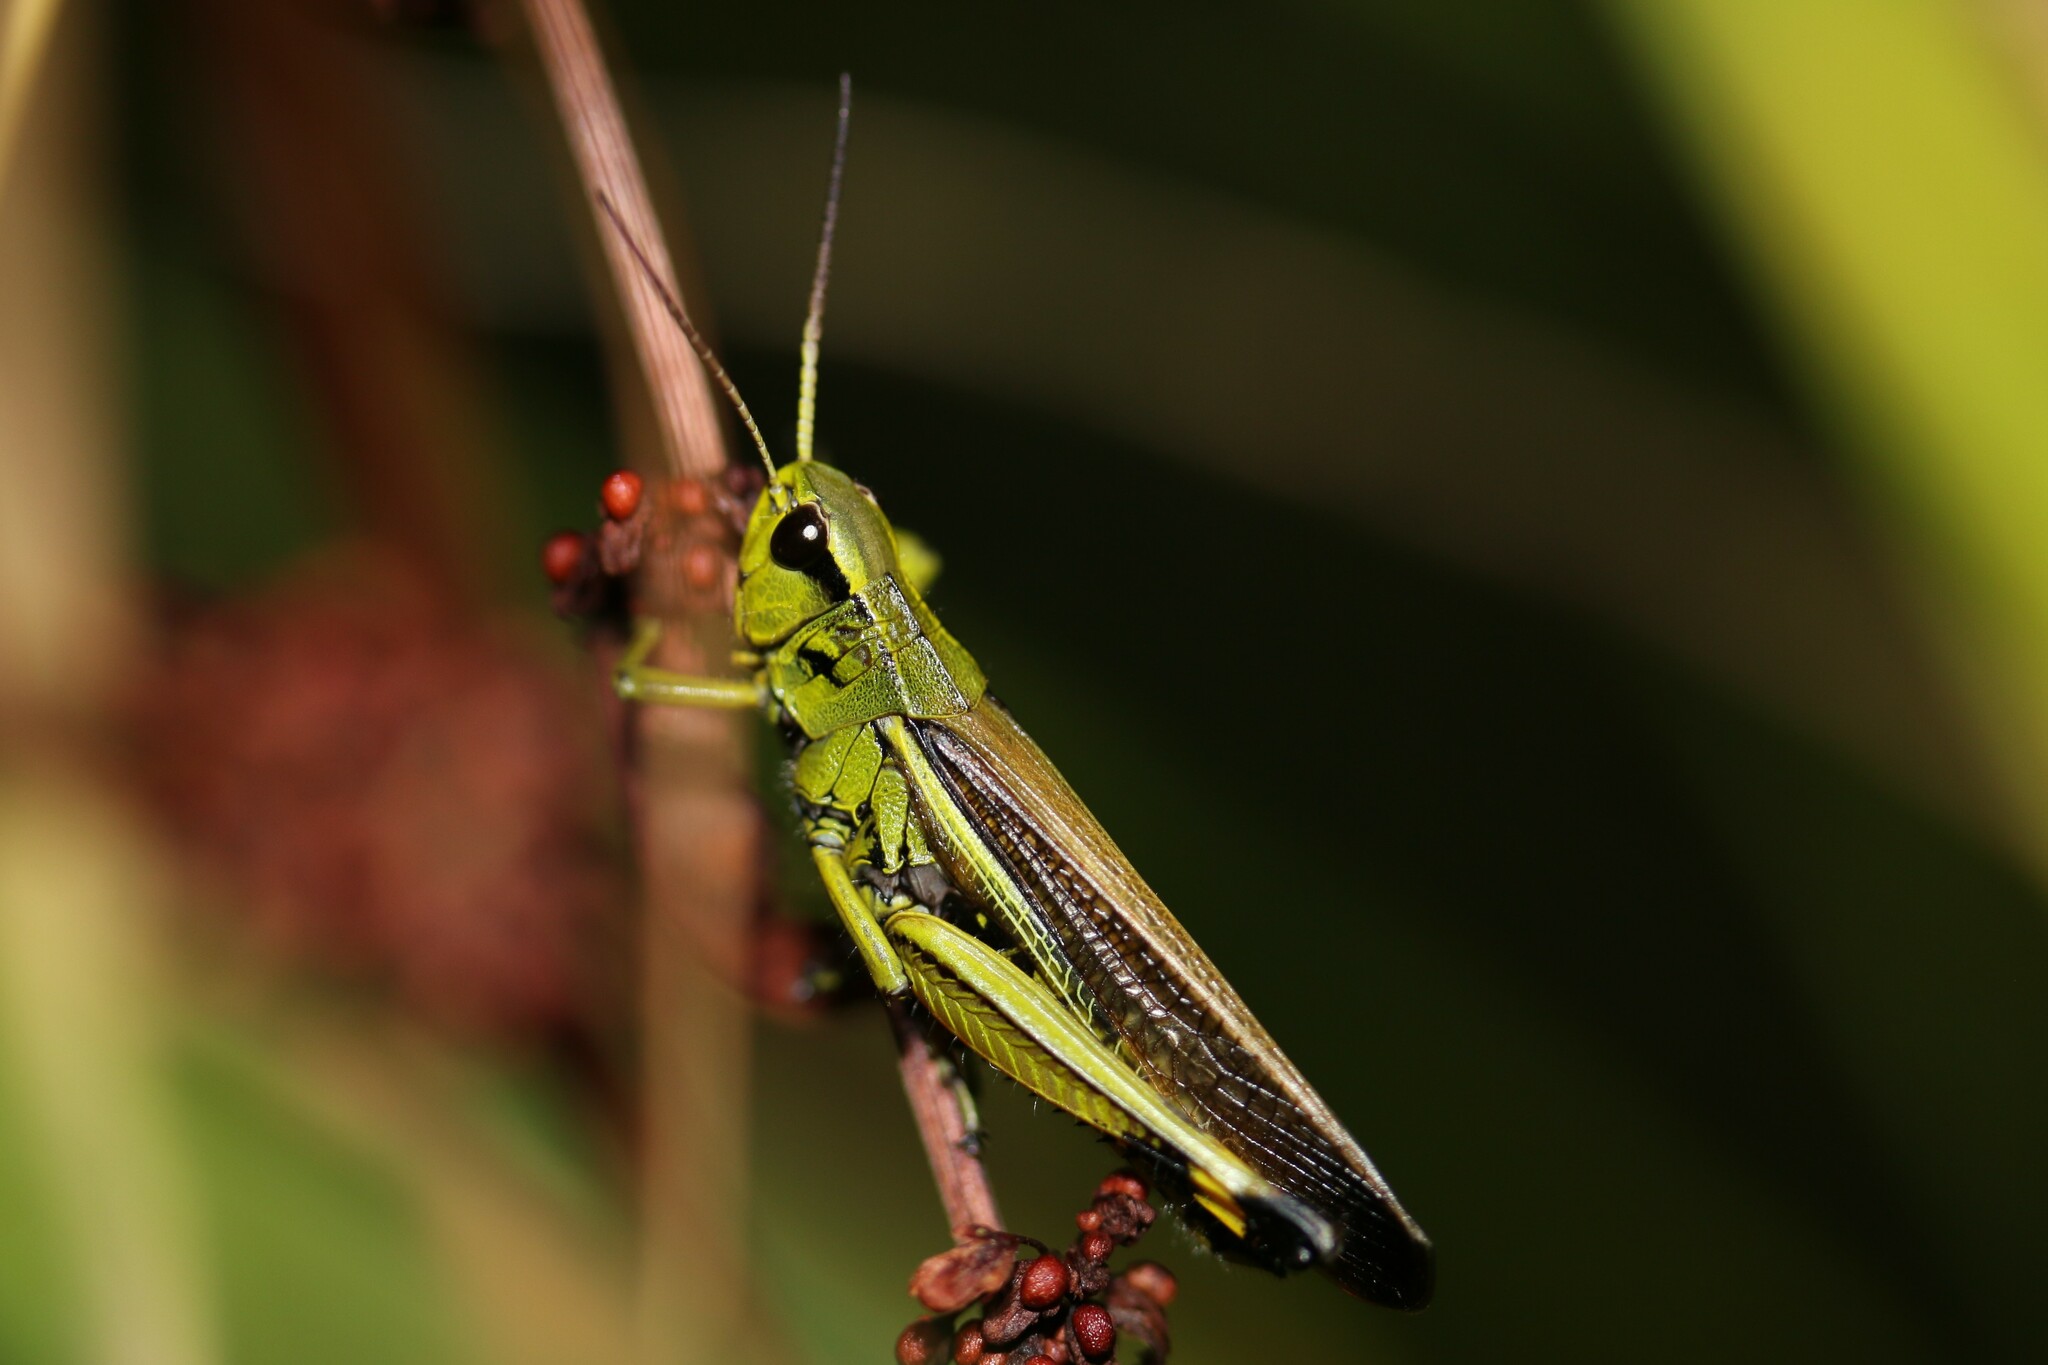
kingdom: Animalia
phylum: Arthropoda
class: Insecta
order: Orthoptera
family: Acrididae
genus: Stethophyma
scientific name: Stethophyma grossum
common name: Large marsh grasshopper
